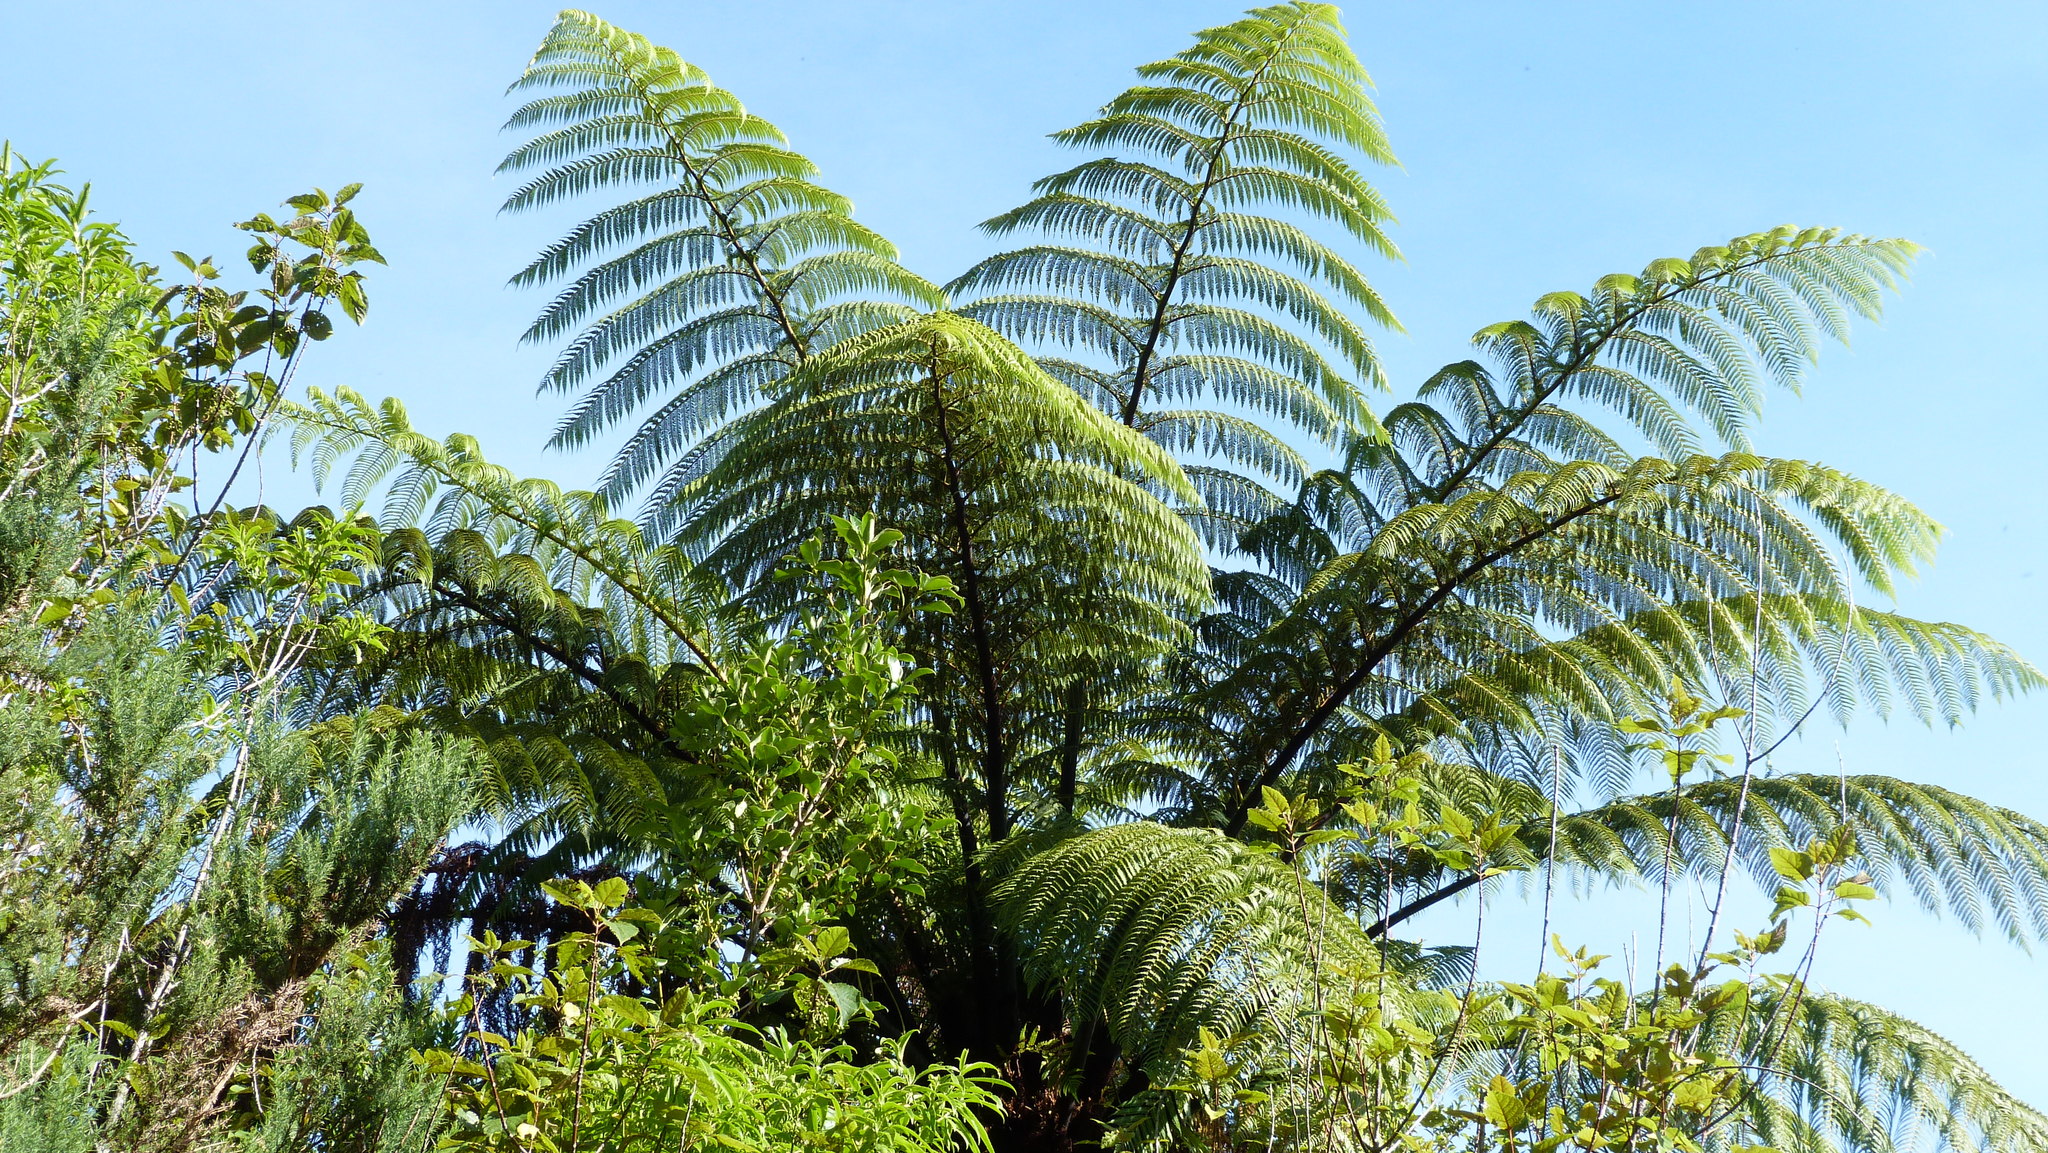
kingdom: Plantae
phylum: Tracheophyta
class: Polypodiopsida
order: Cyatheales
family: Cyatheaceae
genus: Sphaeropteris
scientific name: Sphaeropteris medullaris
